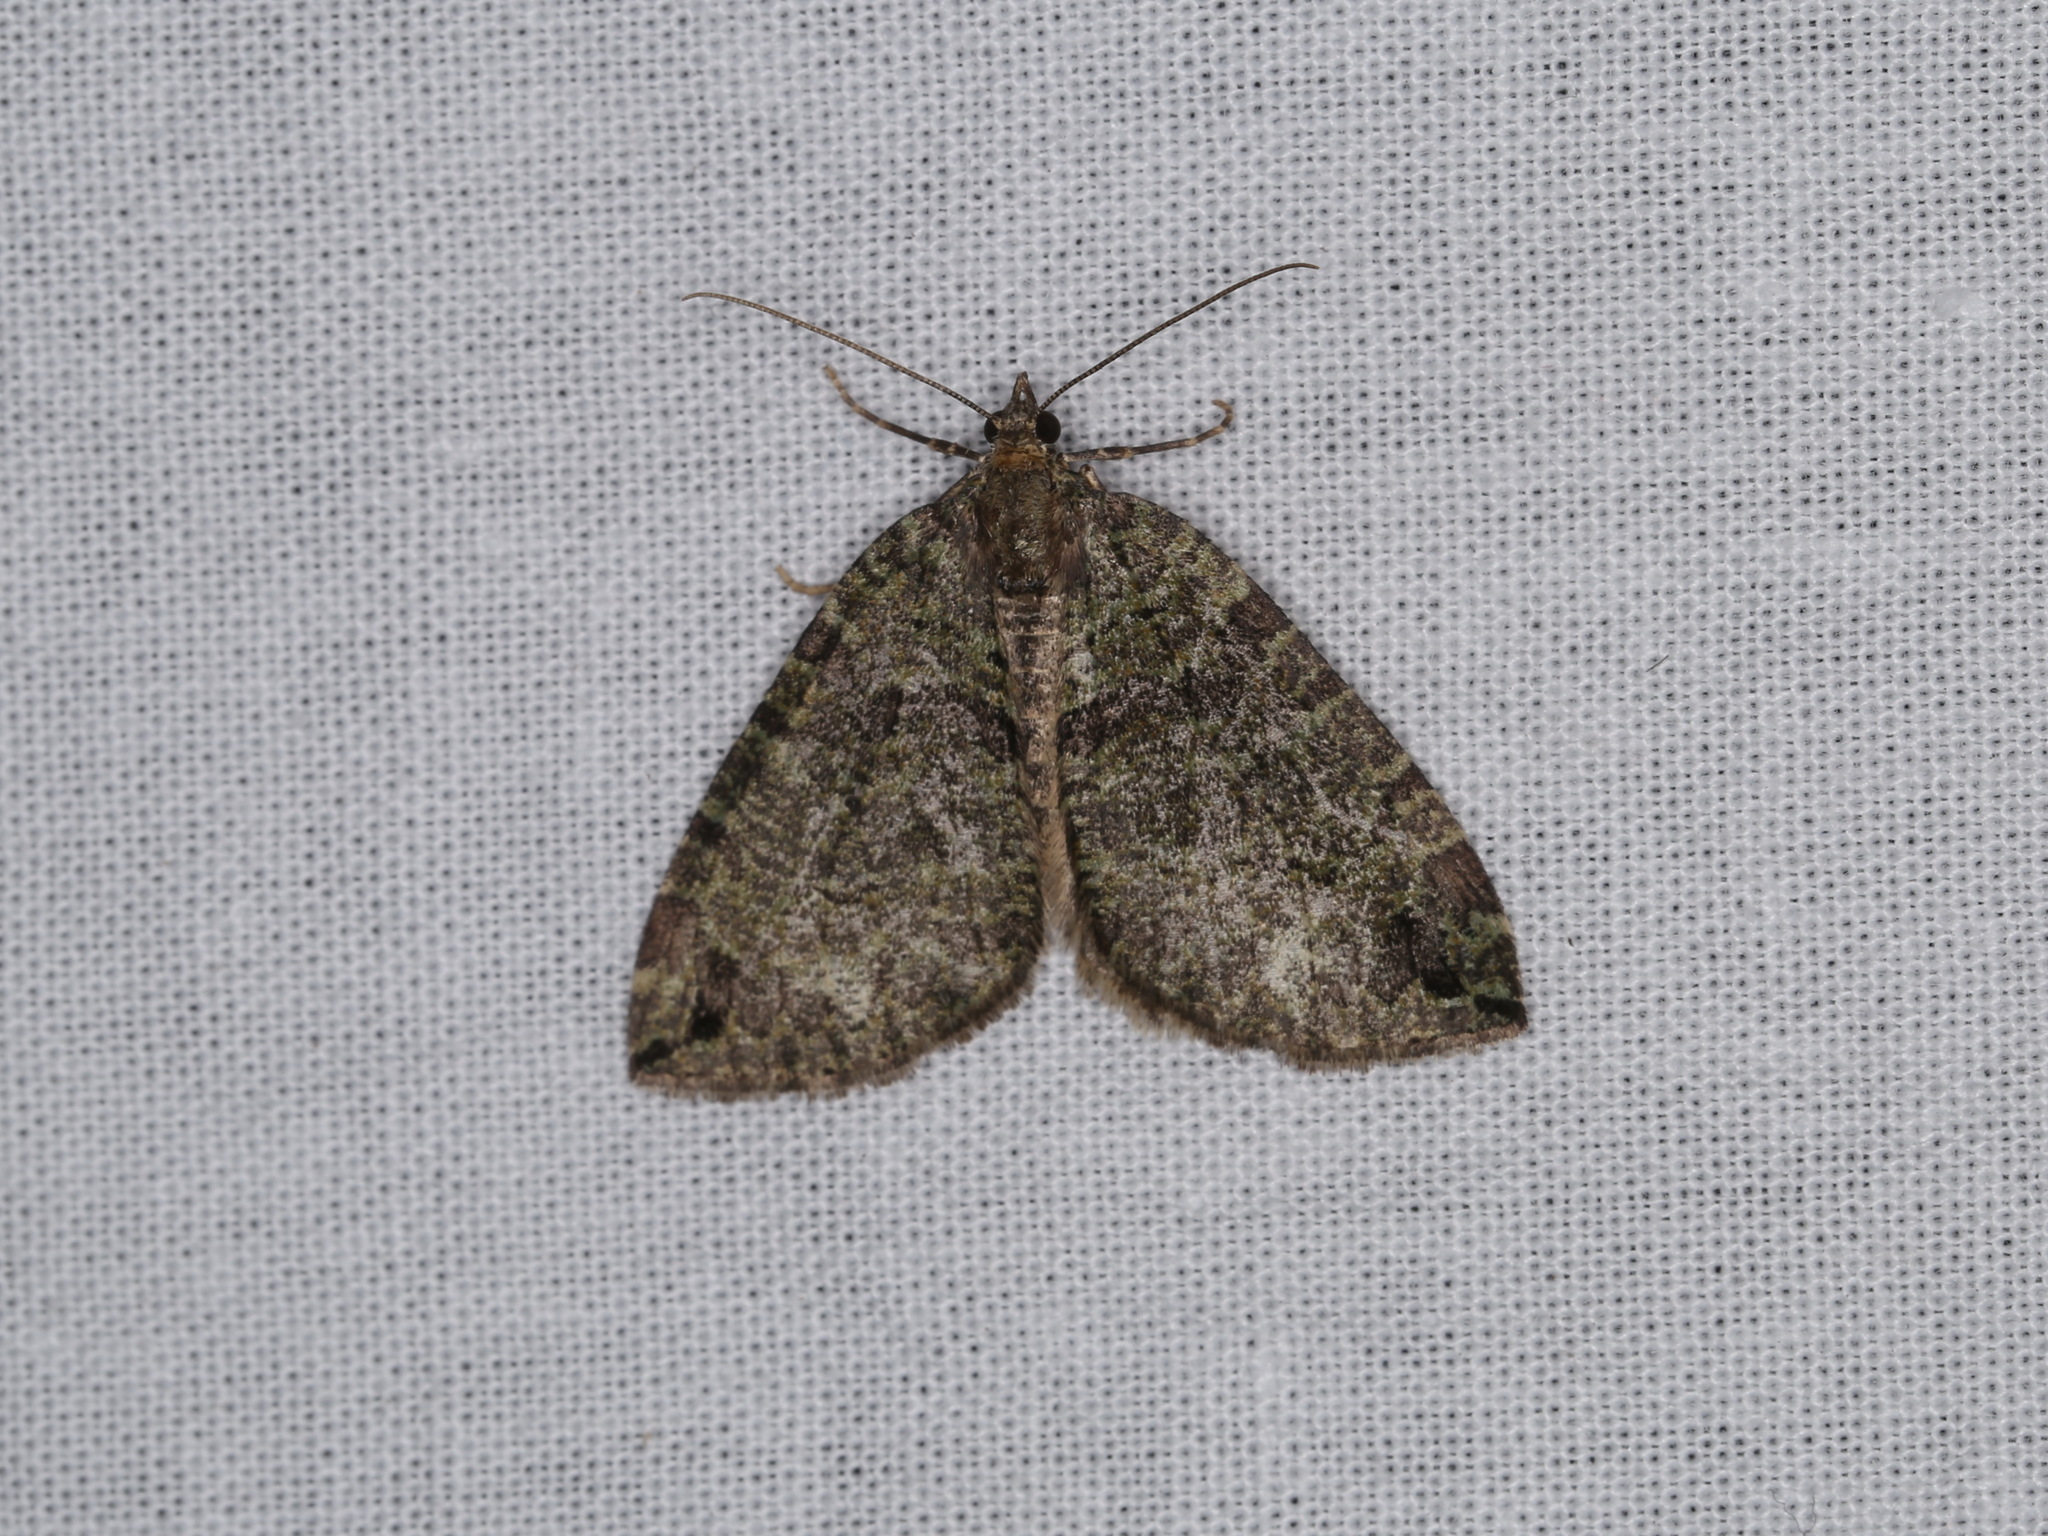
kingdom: Animalia
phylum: Arthropoda
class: Insecta
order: Lepidoptera
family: Geometridae
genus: Hydriomena
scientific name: Hydriomena furcata
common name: July highflyer
